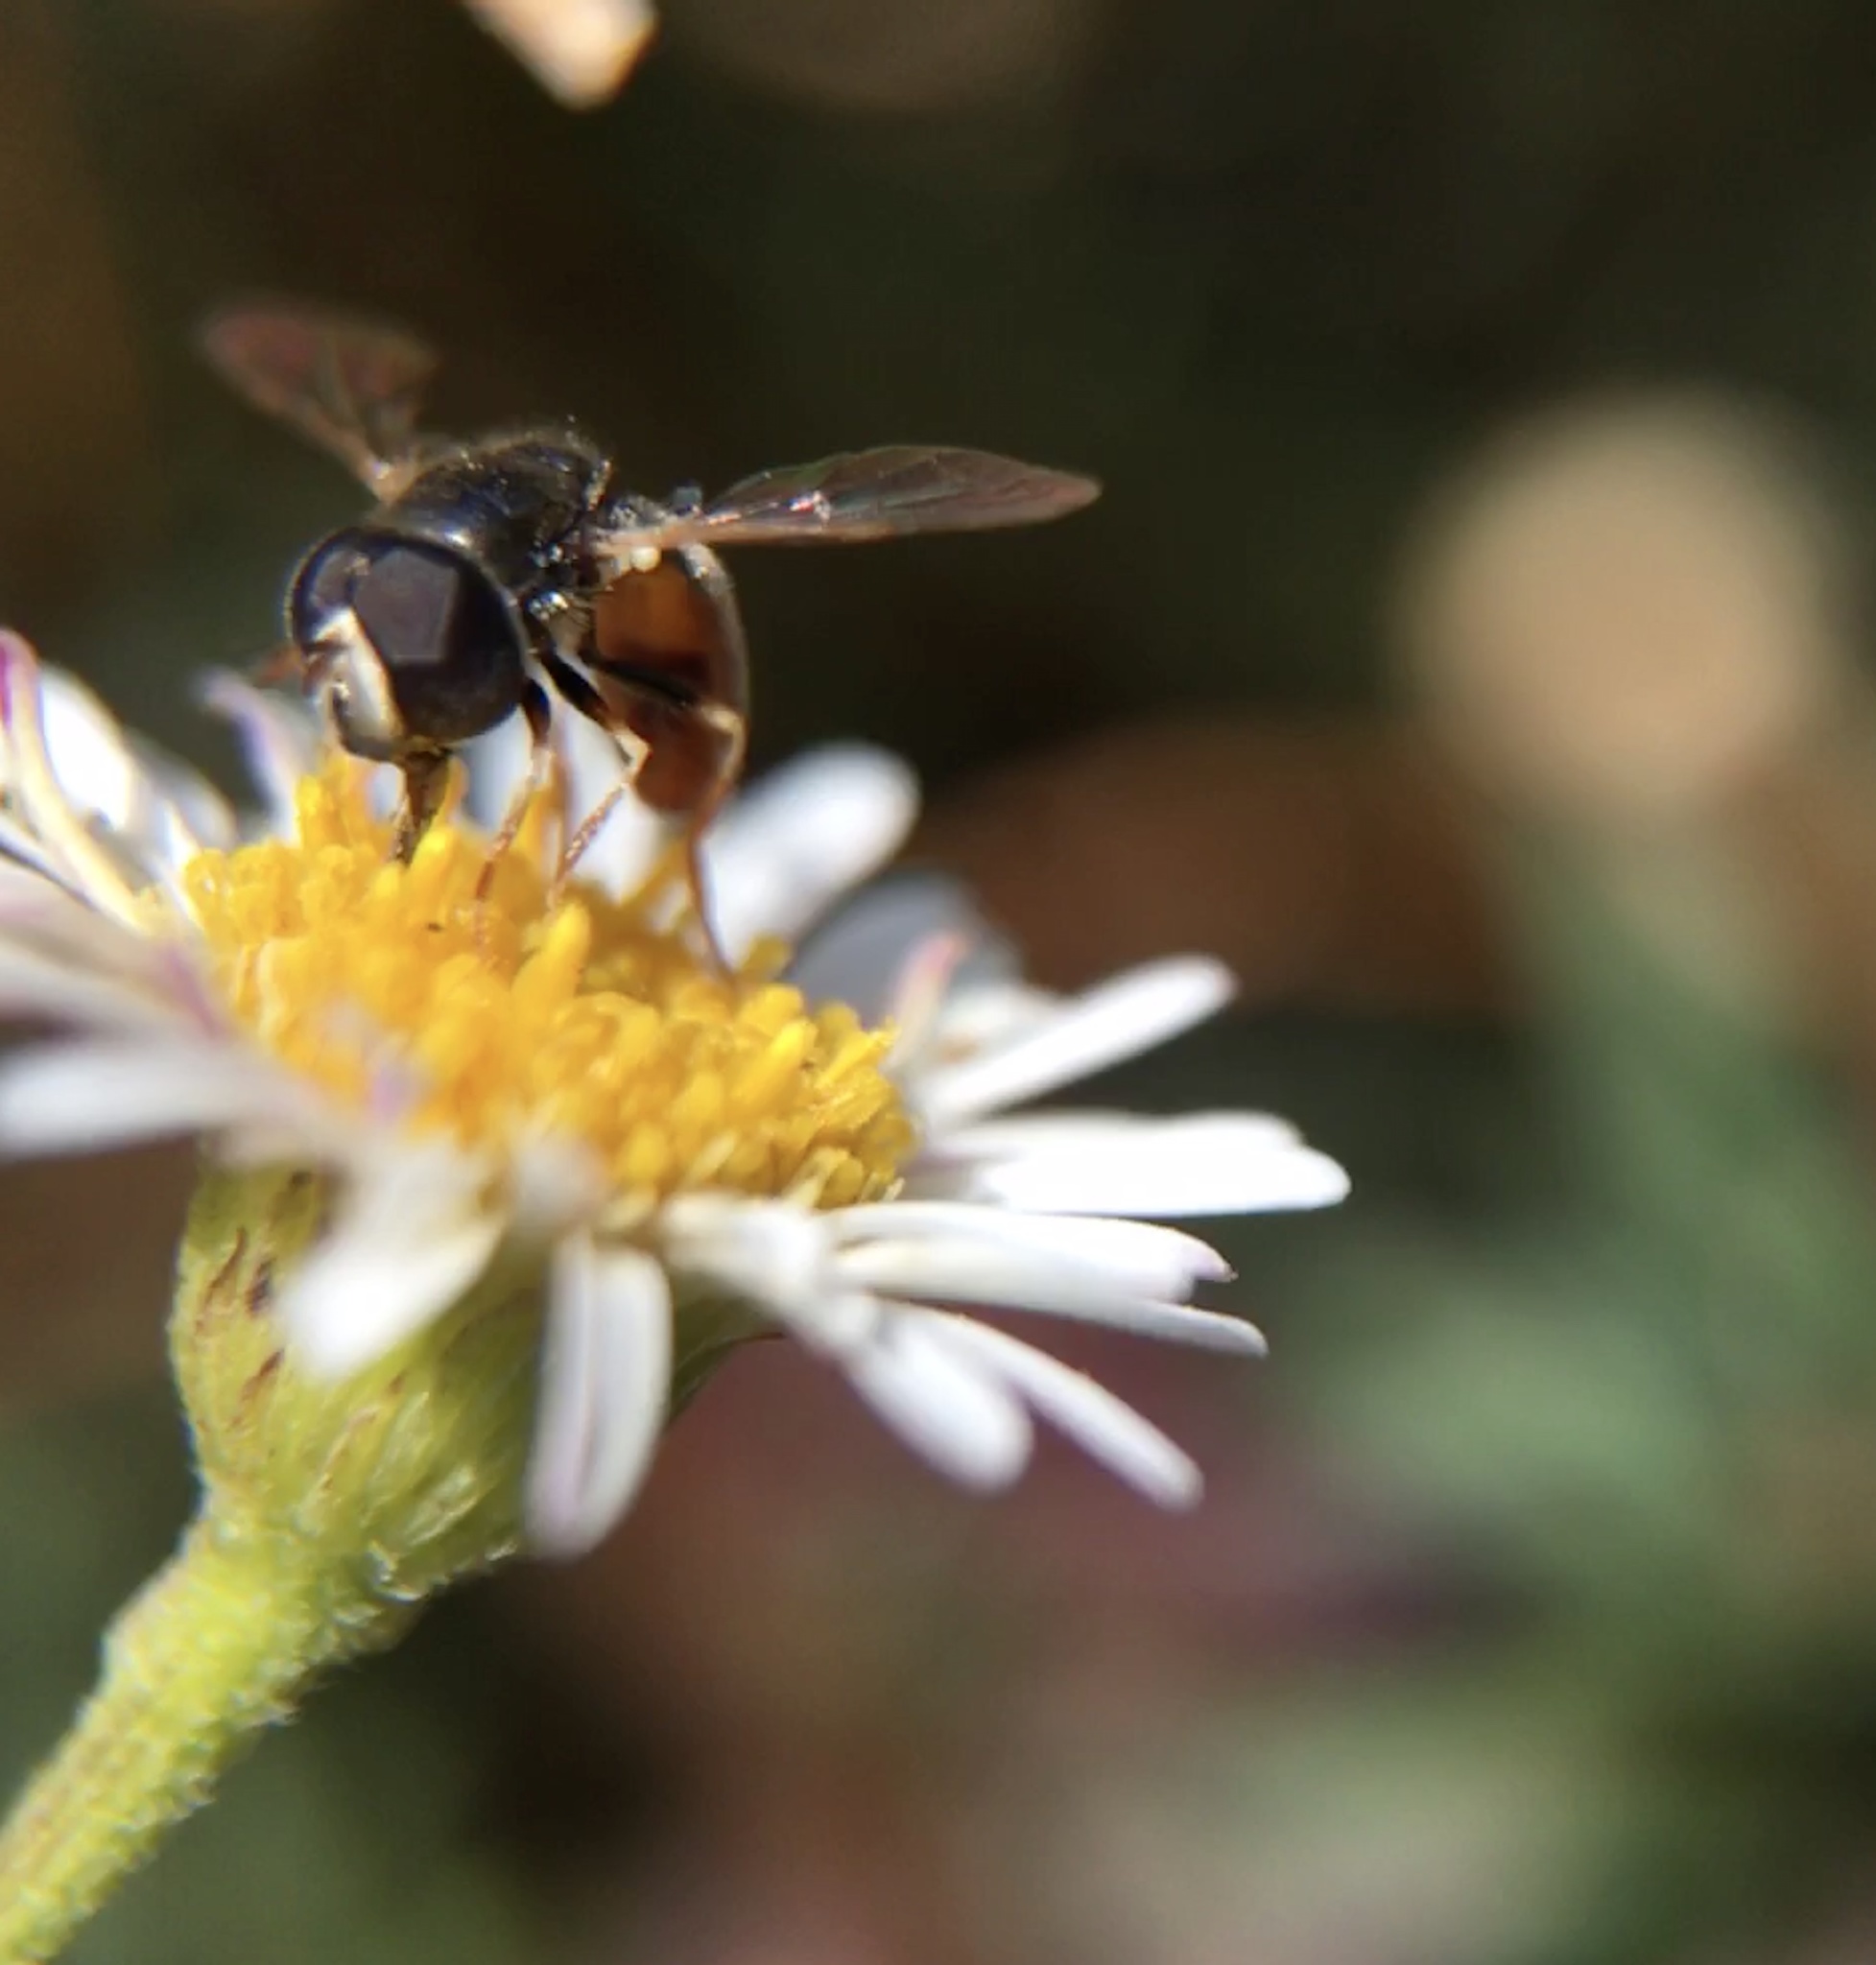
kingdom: Animalia
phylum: Arthropoda
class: Insecta
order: Diptera
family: Syrphidae
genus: Paragus
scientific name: Paragus haemorrhous
